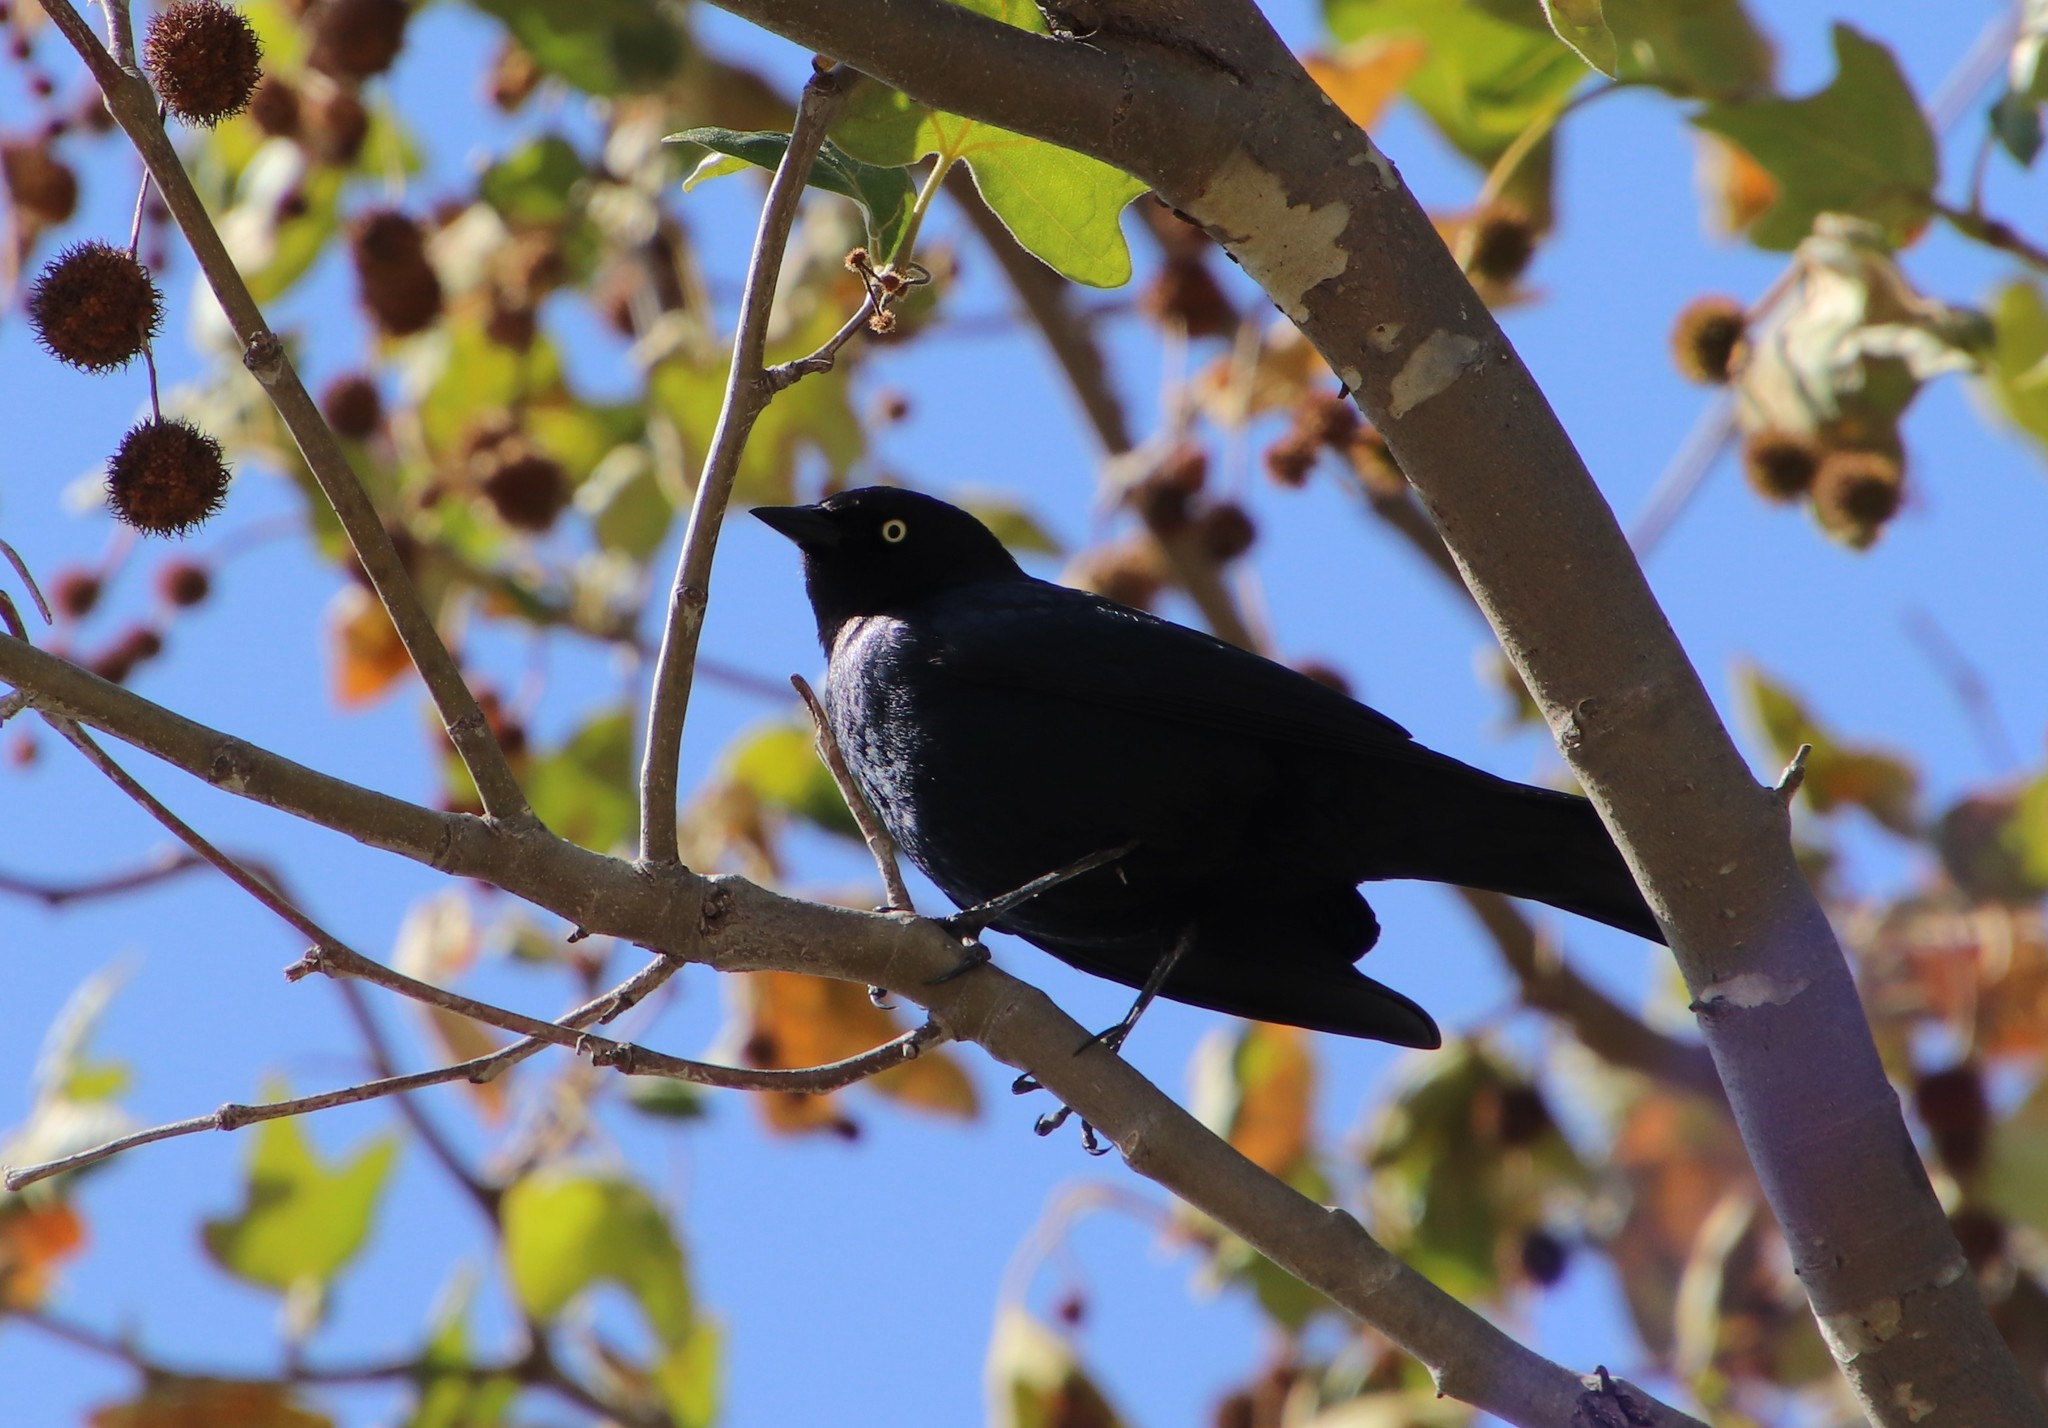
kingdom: Animalia
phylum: Chordata
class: Aves
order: Passeriformes
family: Icteridae
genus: Euphagus
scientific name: Euphagus cyanocephalus
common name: Brewer's blackbird
